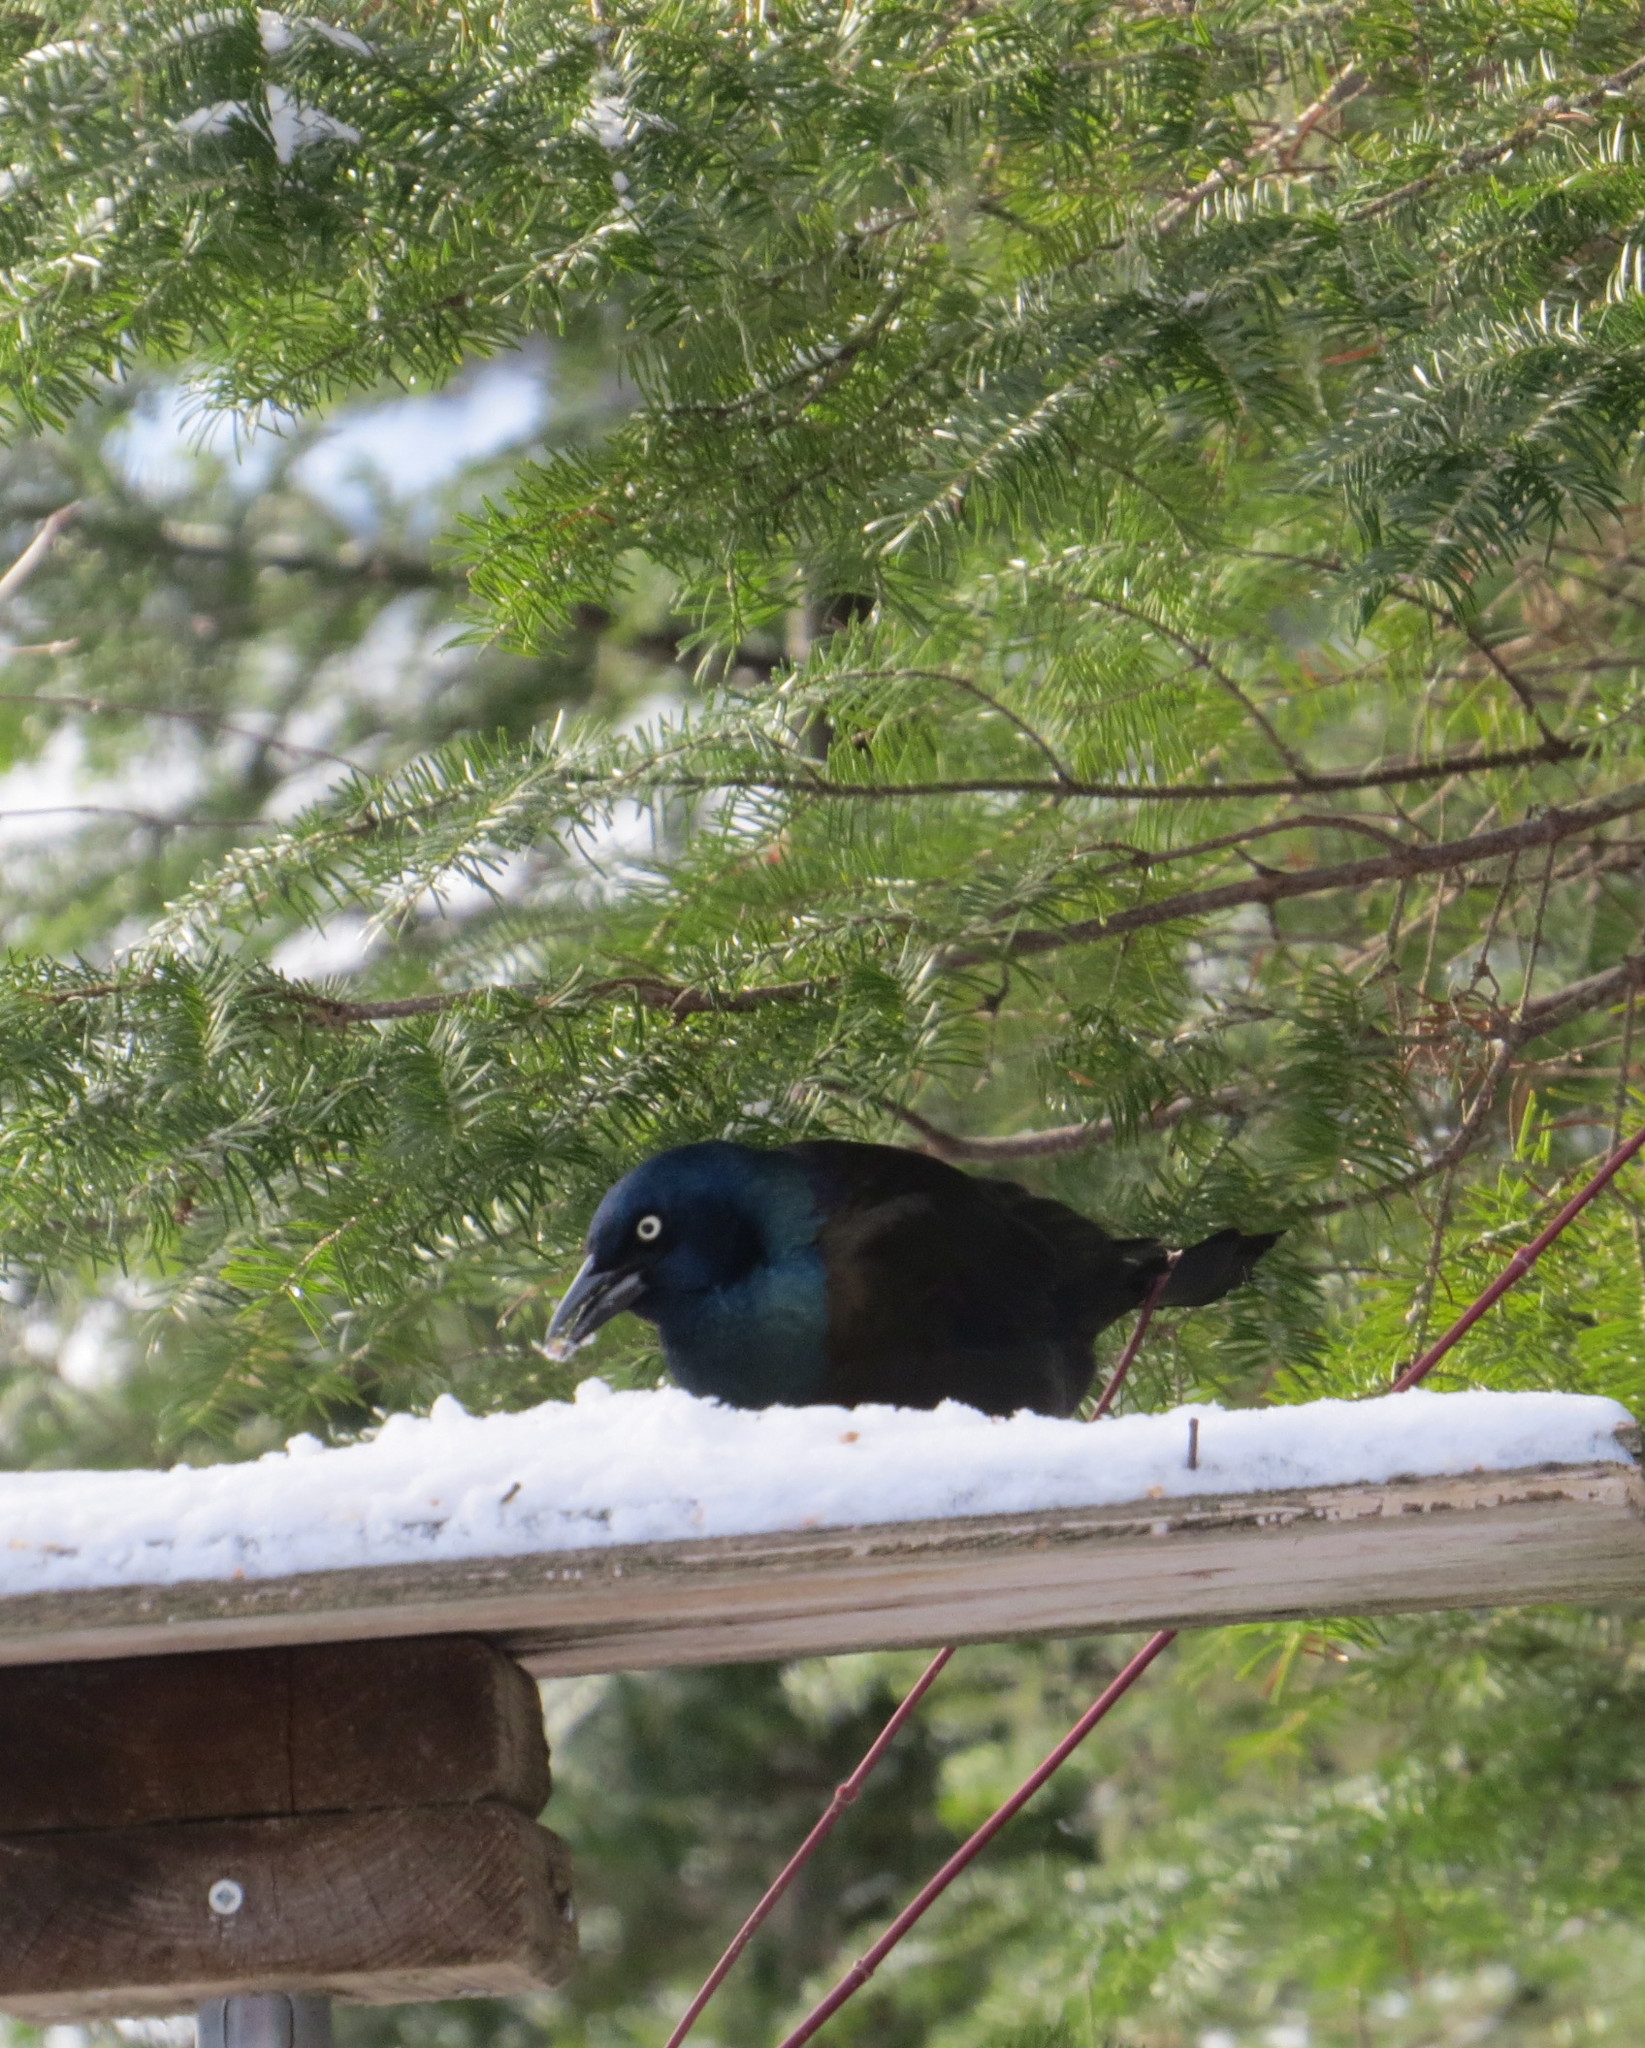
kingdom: Animalia
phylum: Chordata
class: Aves
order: Passeriformes
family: Icteridae
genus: Quiscalus
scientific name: Quiscalus quiscula
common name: Common grackle
